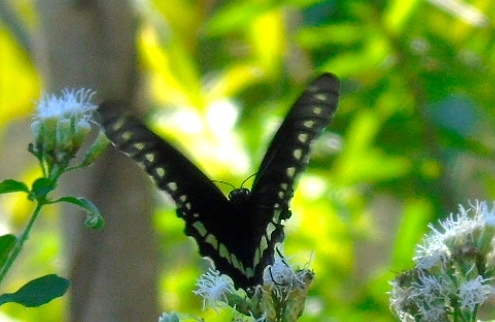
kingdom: Animalia
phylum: Arthropoda
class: Insecta
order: Lepidoptera
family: Papilionidae
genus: Battus
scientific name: Battus polydamas
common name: Polydamas swallowtail
